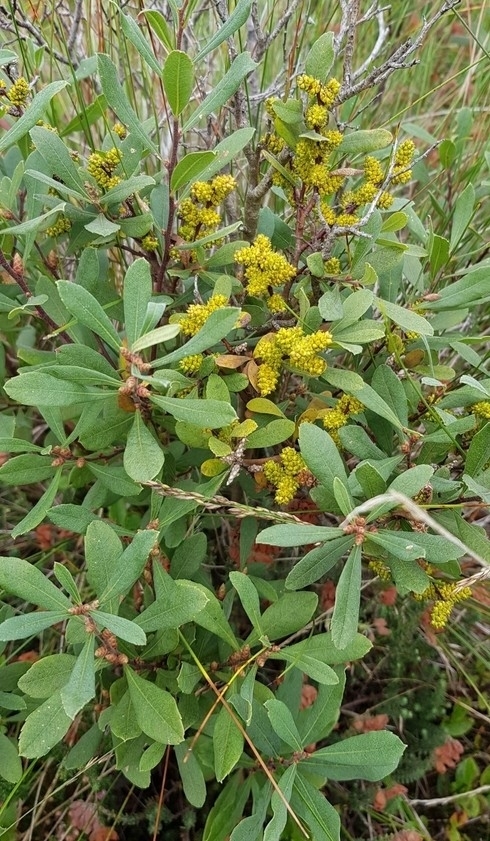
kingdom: Plantae
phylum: Tracheophyta
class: Magnoliopsida
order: Fagales
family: Myricaceae
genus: Myrica
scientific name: Myrica gale
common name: Sweet gale
